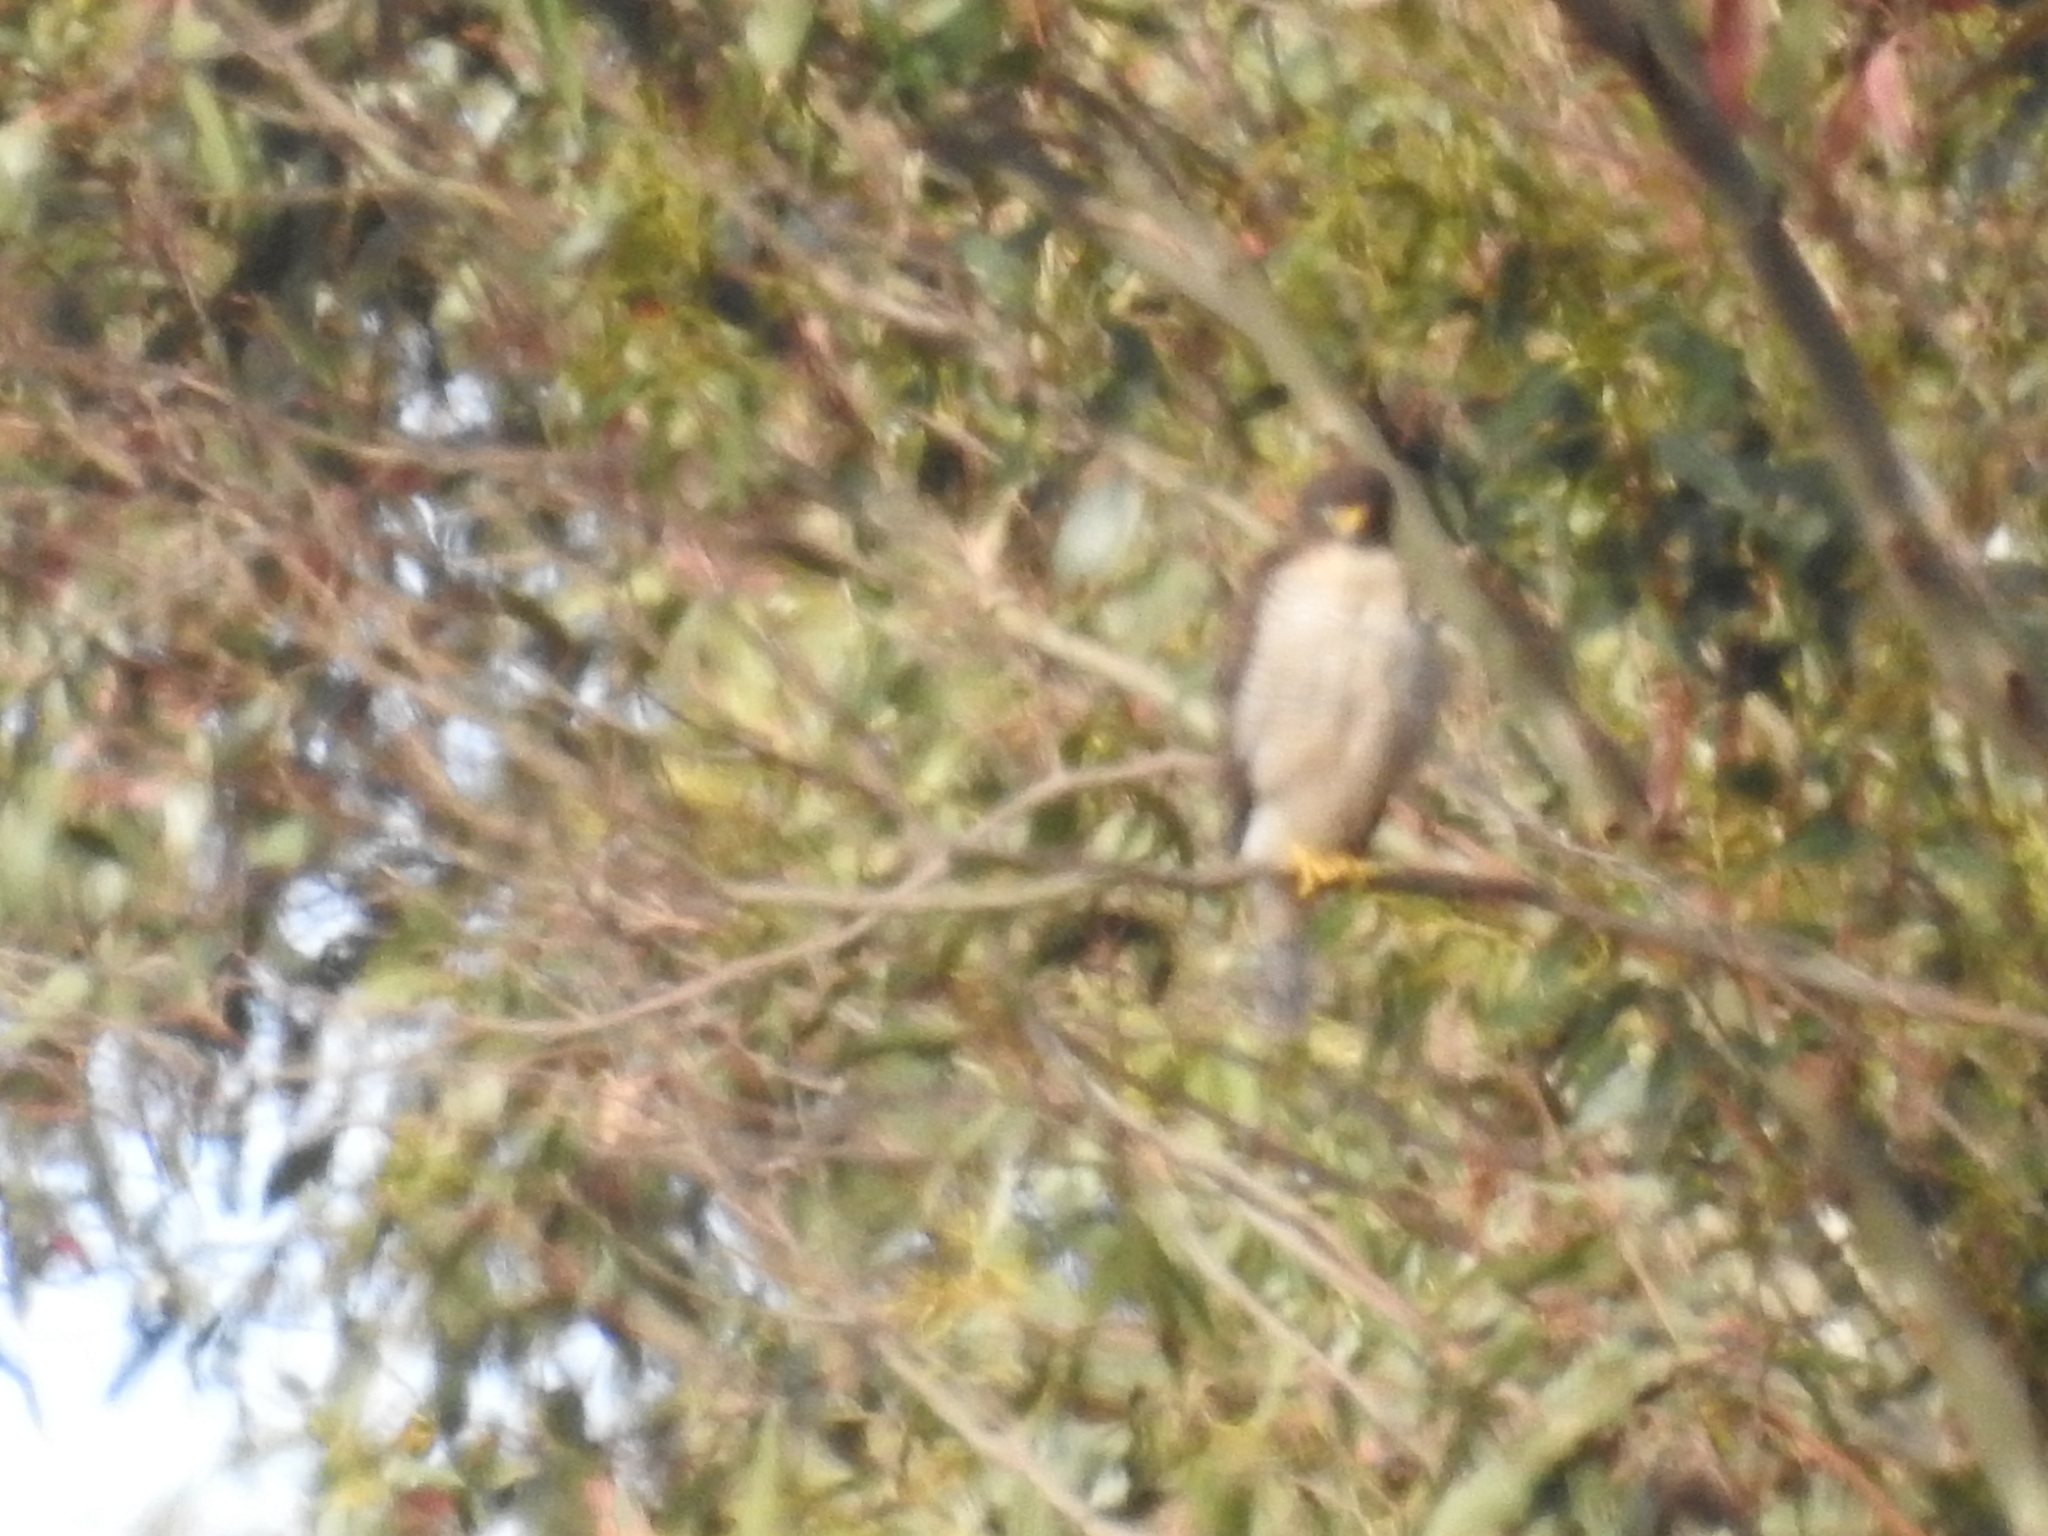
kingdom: Animalia
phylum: Chordata
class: Aves
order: Accipitriformes
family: Accipitridae
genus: Rupornis
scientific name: Rupornis magnirostris
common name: Roadside hawk
